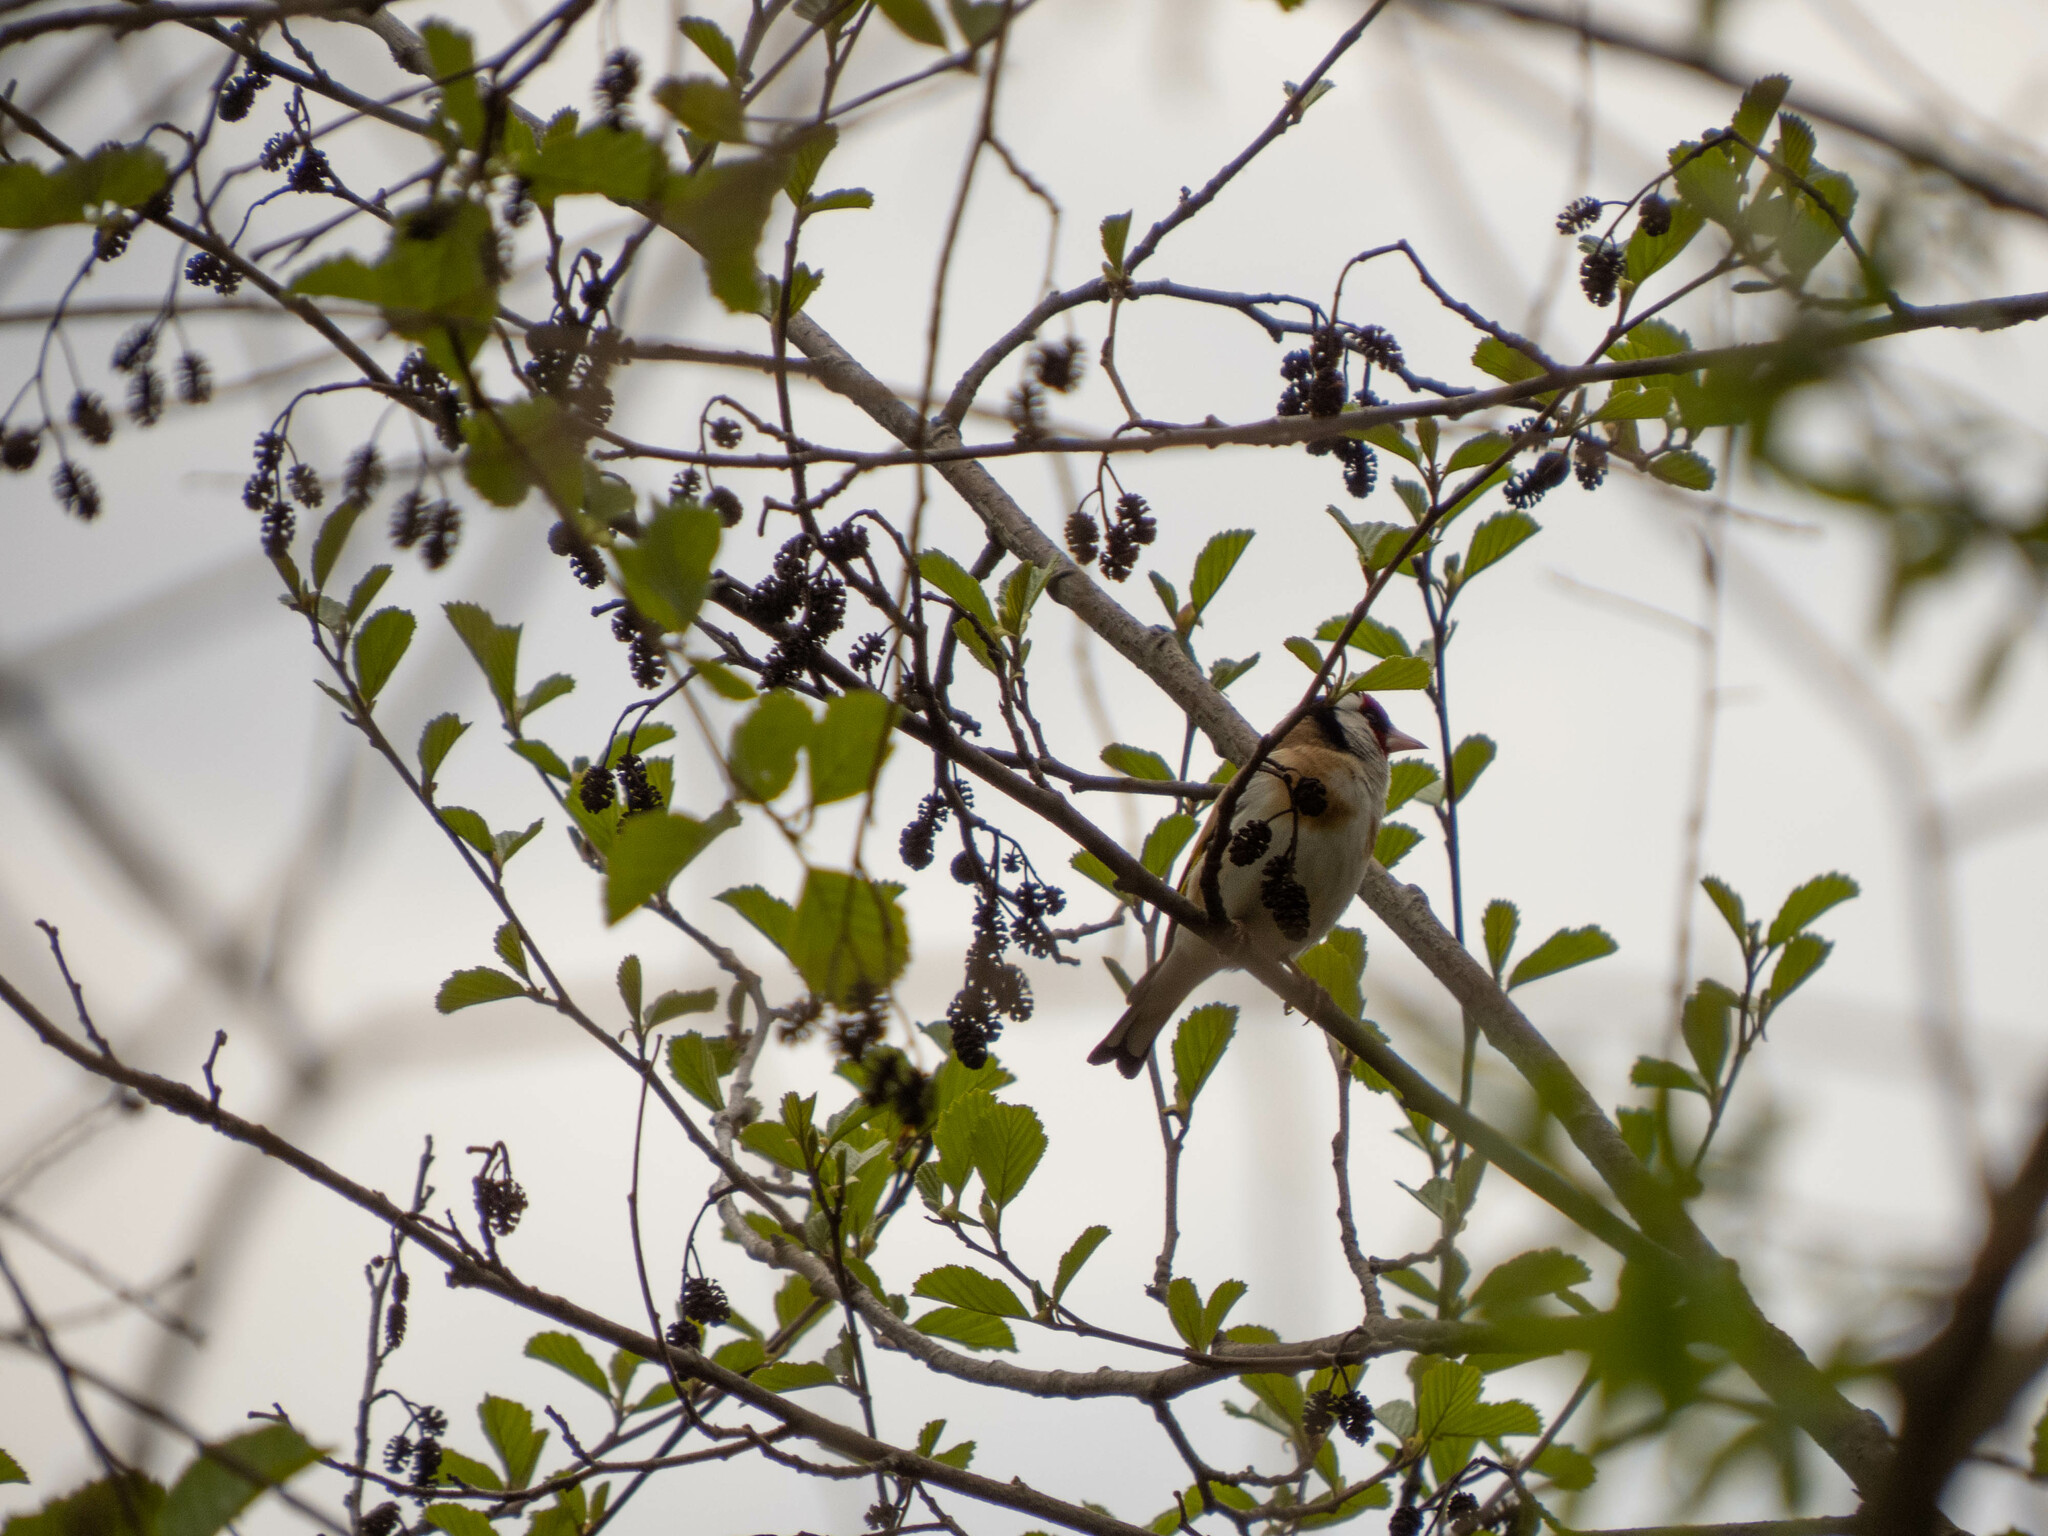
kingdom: Animalia
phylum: Chordata
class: Aves
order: Passeriformes
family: Fringillidae
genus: Carduelis
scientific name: Carduelis carduelis
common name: European goldfinch
